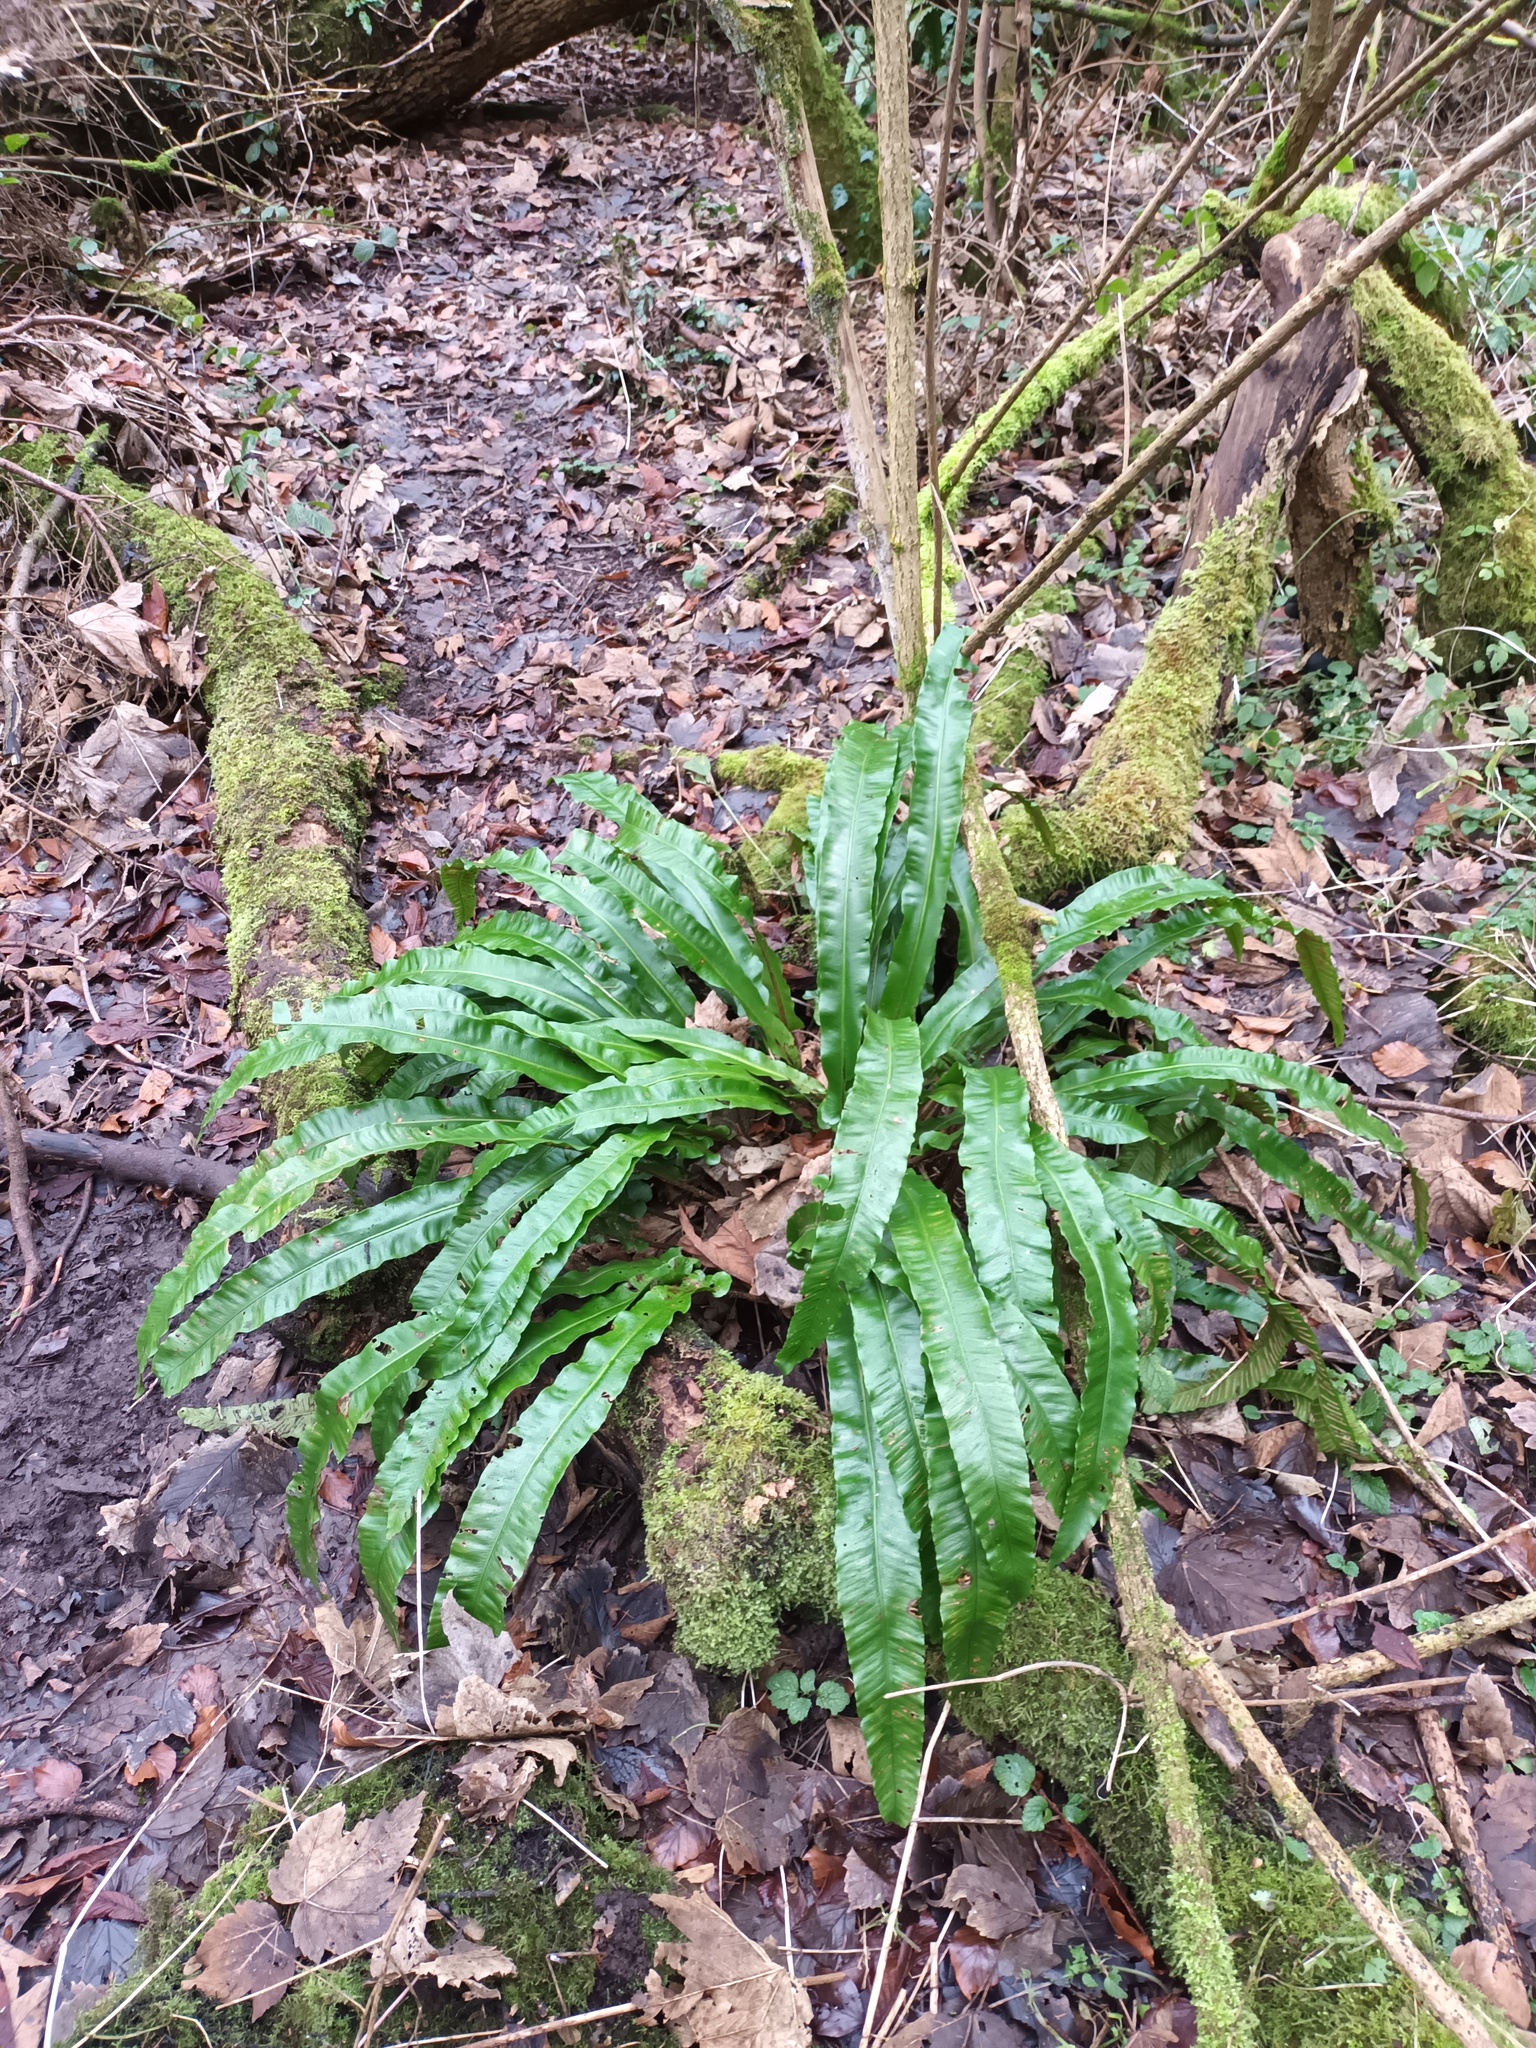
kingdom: Plantae
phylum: Tracheophyta
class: Polypodiopsida
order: Polypodiales
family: Aspleniaceae
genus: Asplenium
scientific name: Asplenium scolopendrium
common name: Hart's-tongue fern
